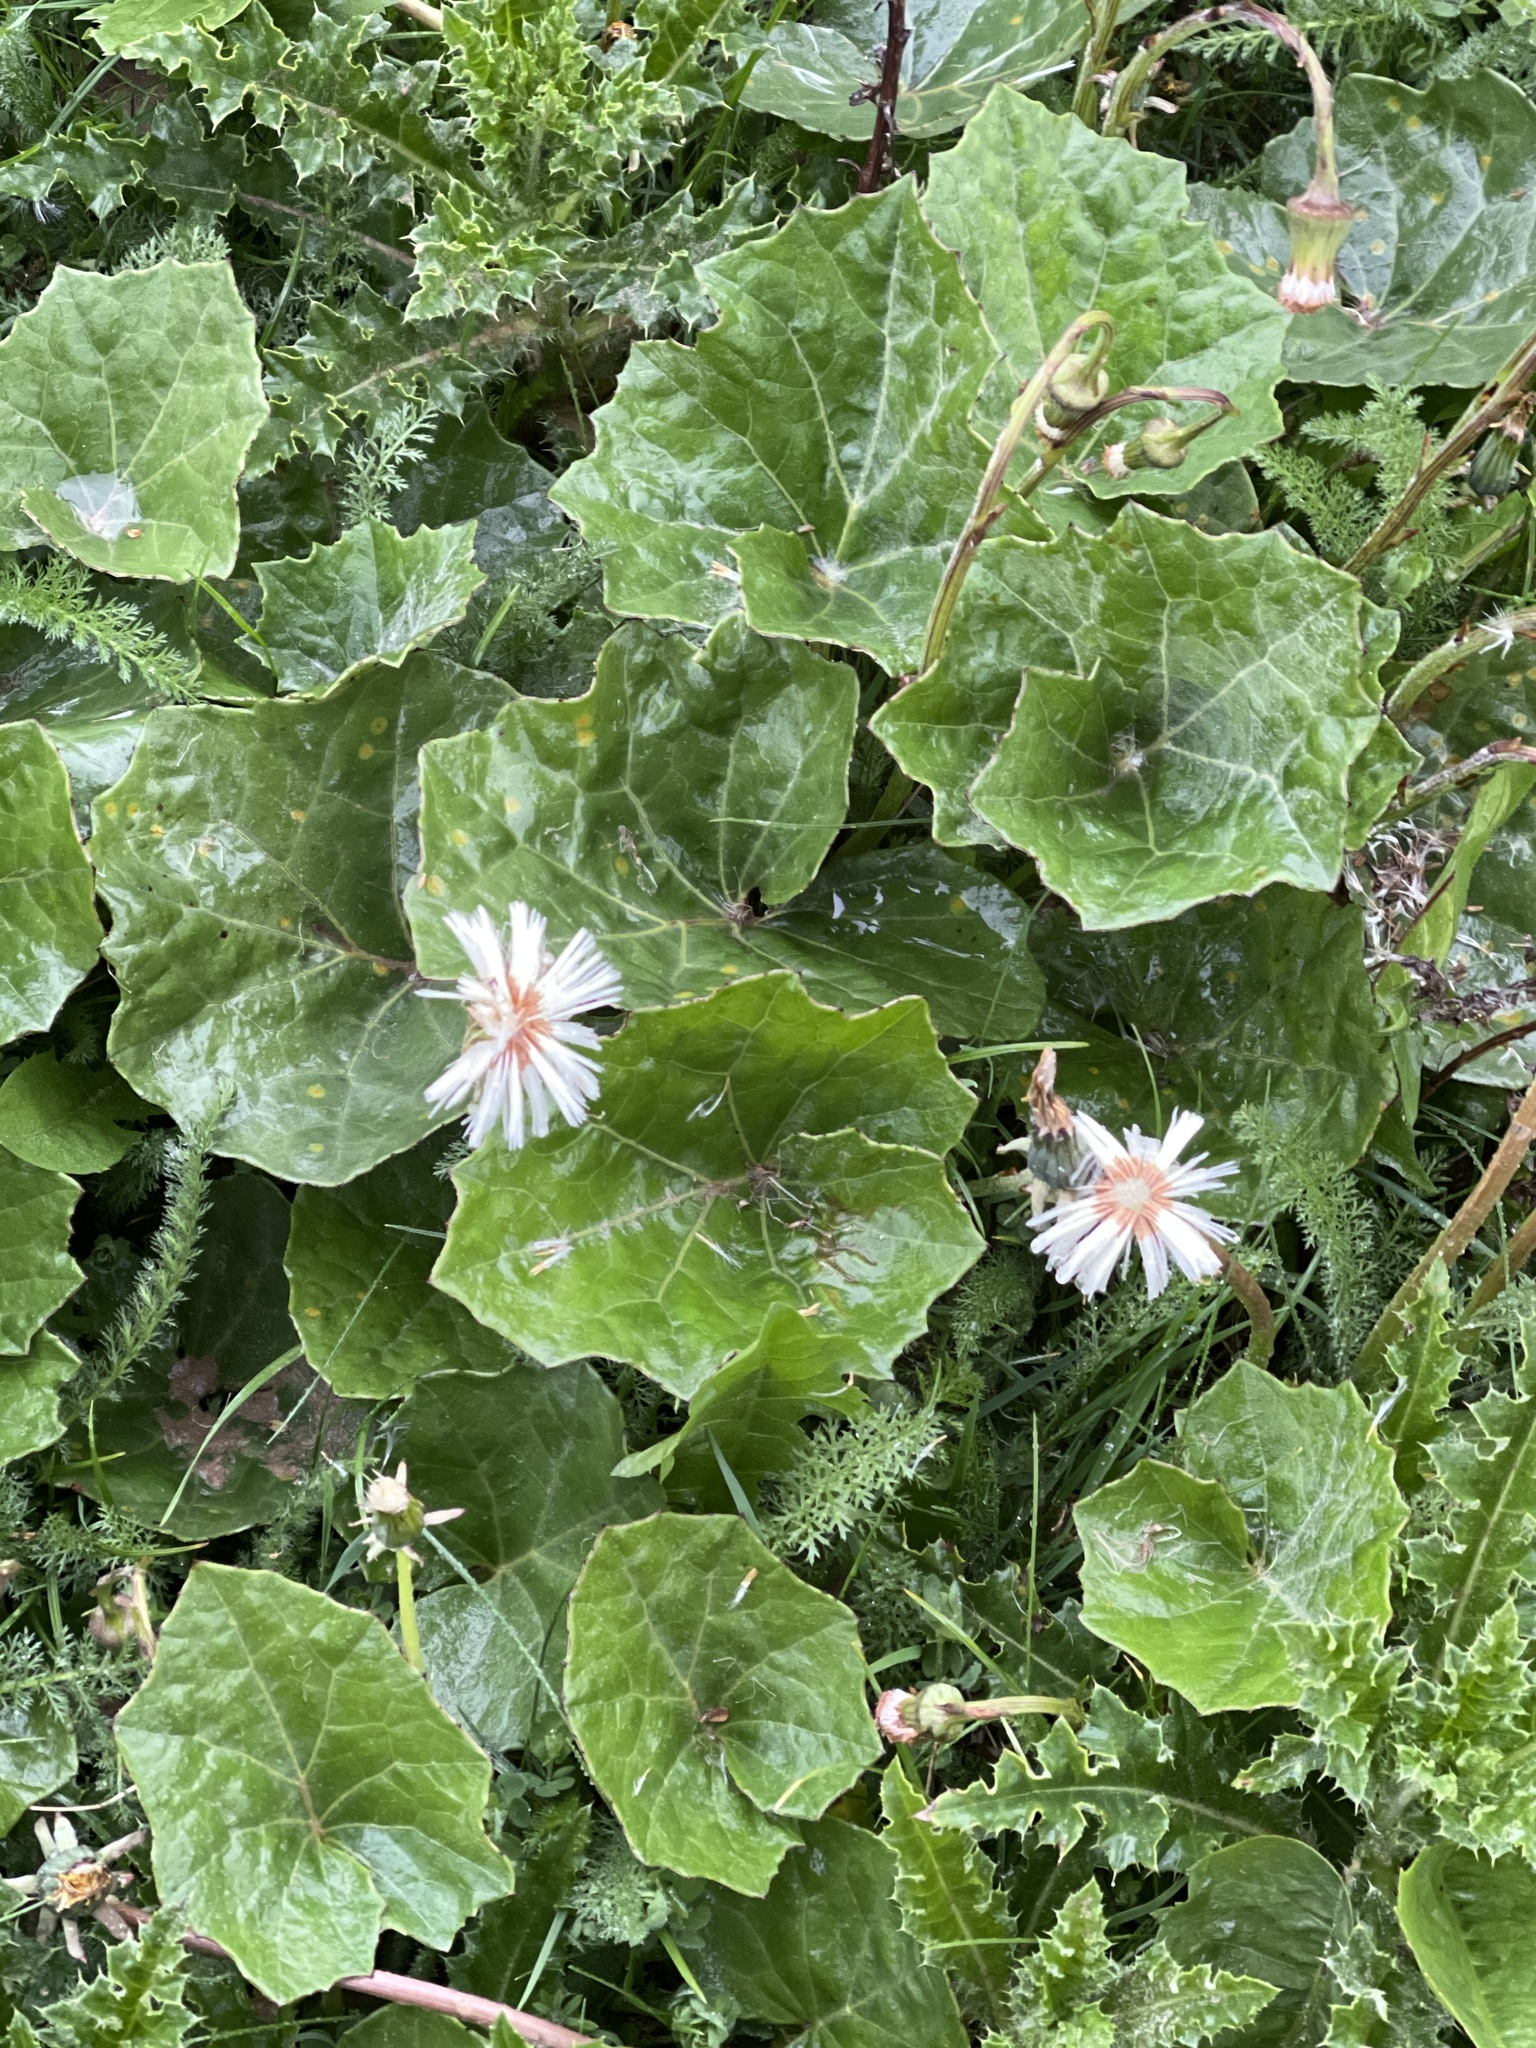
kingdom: Plantae
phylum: Tracheophyta
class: Magnoliopsida
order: Asterales
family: Asteraceae
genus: Tussilago
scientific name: Tussilago farfara
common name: Coltsfoot
